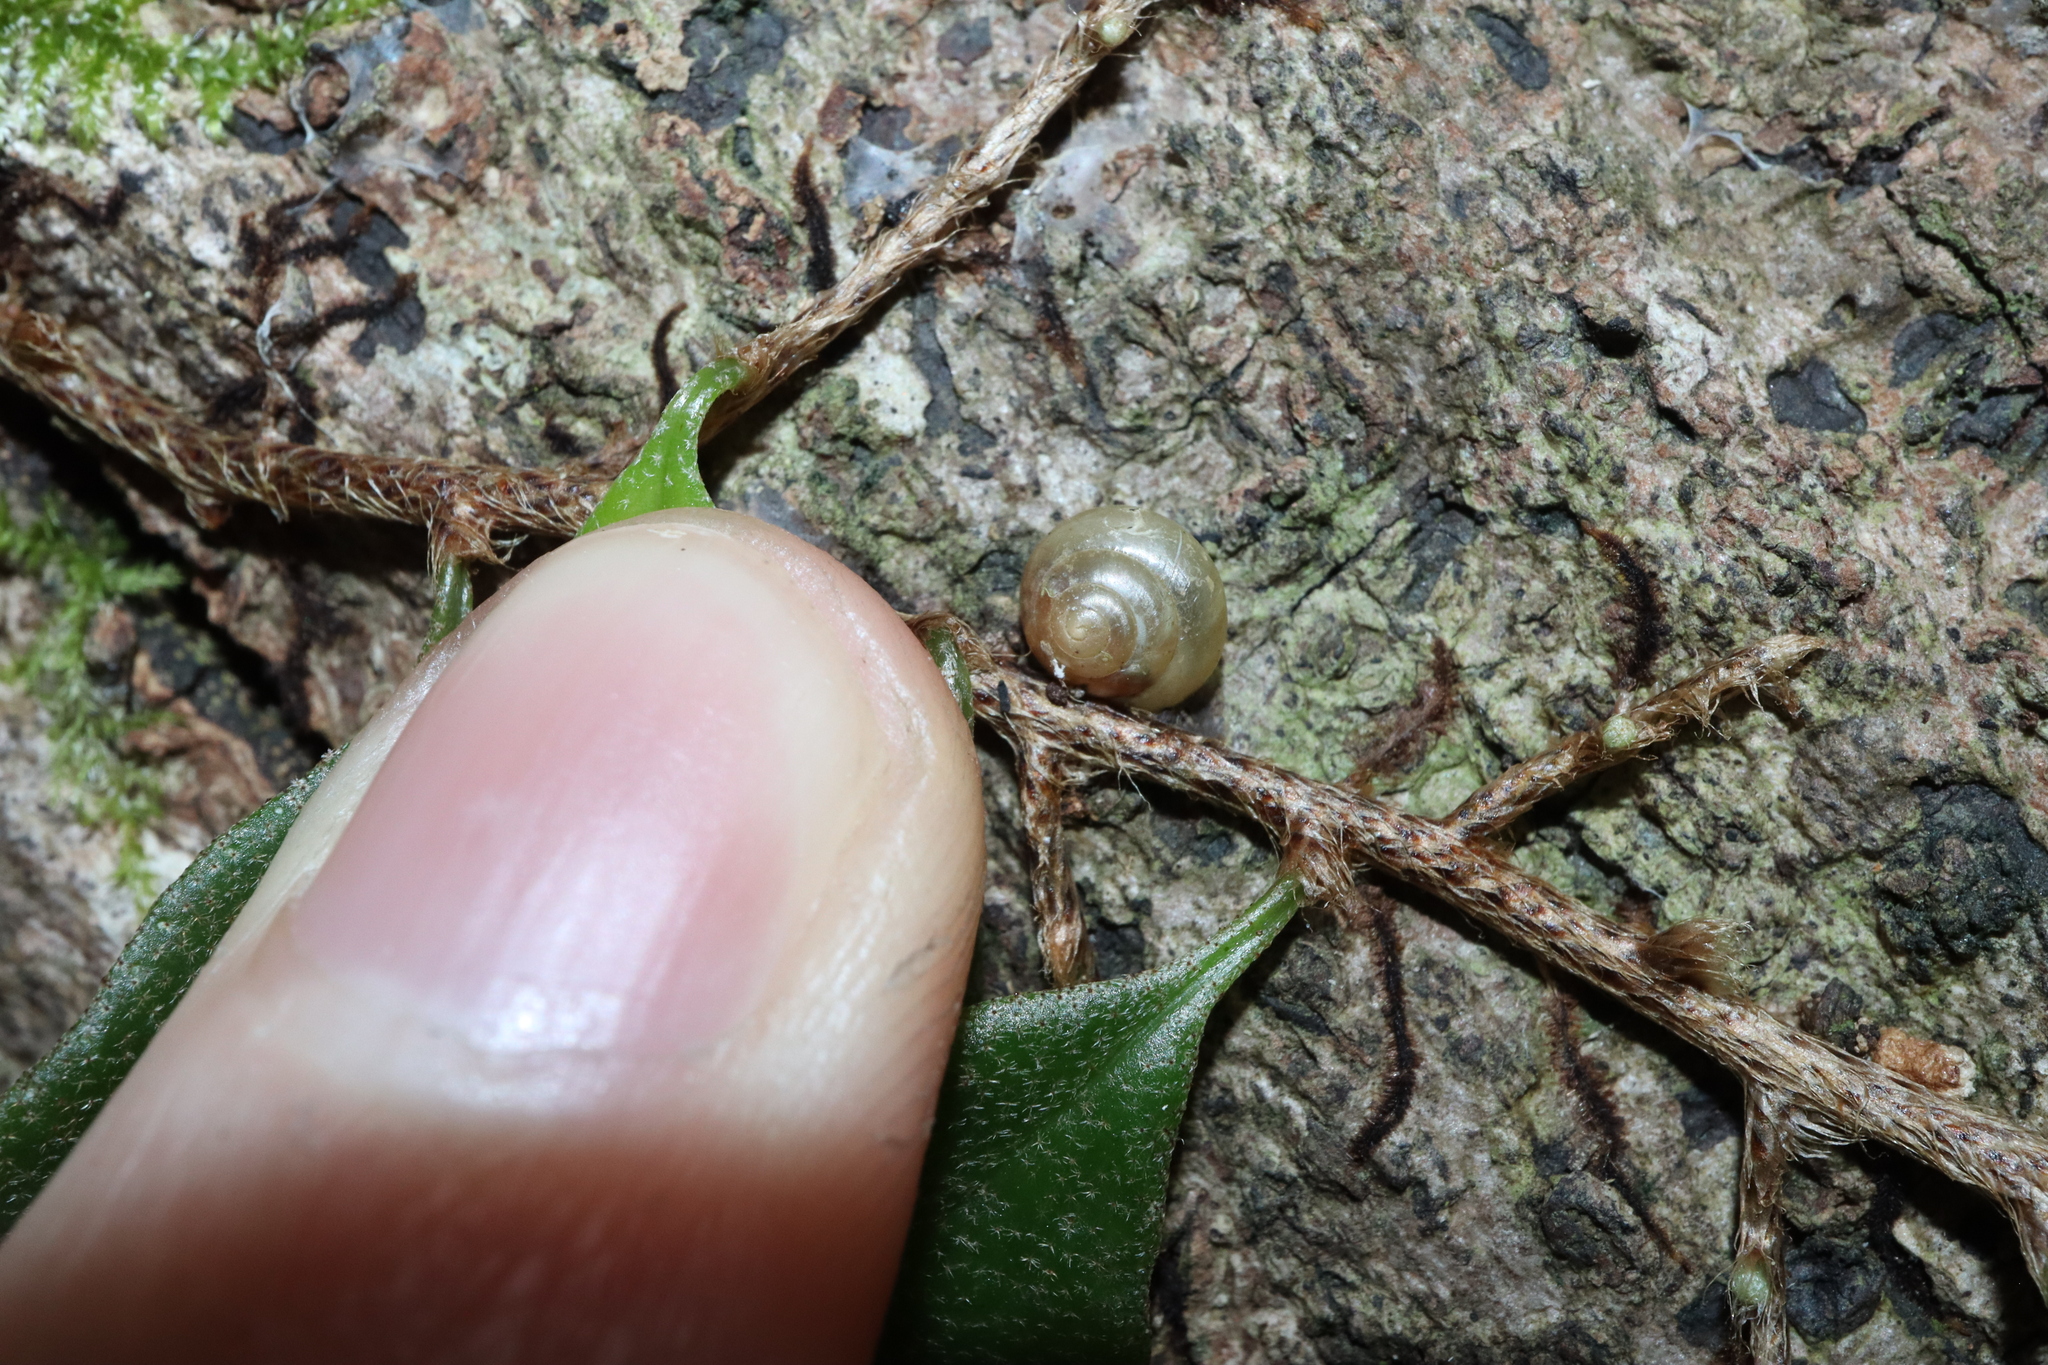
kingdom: Animalia
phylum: Mollusca
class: Gastropoda
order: Stylommatophora
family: Euconulidae
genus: Coneuplecta
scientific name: Coneuplecta calculosa
